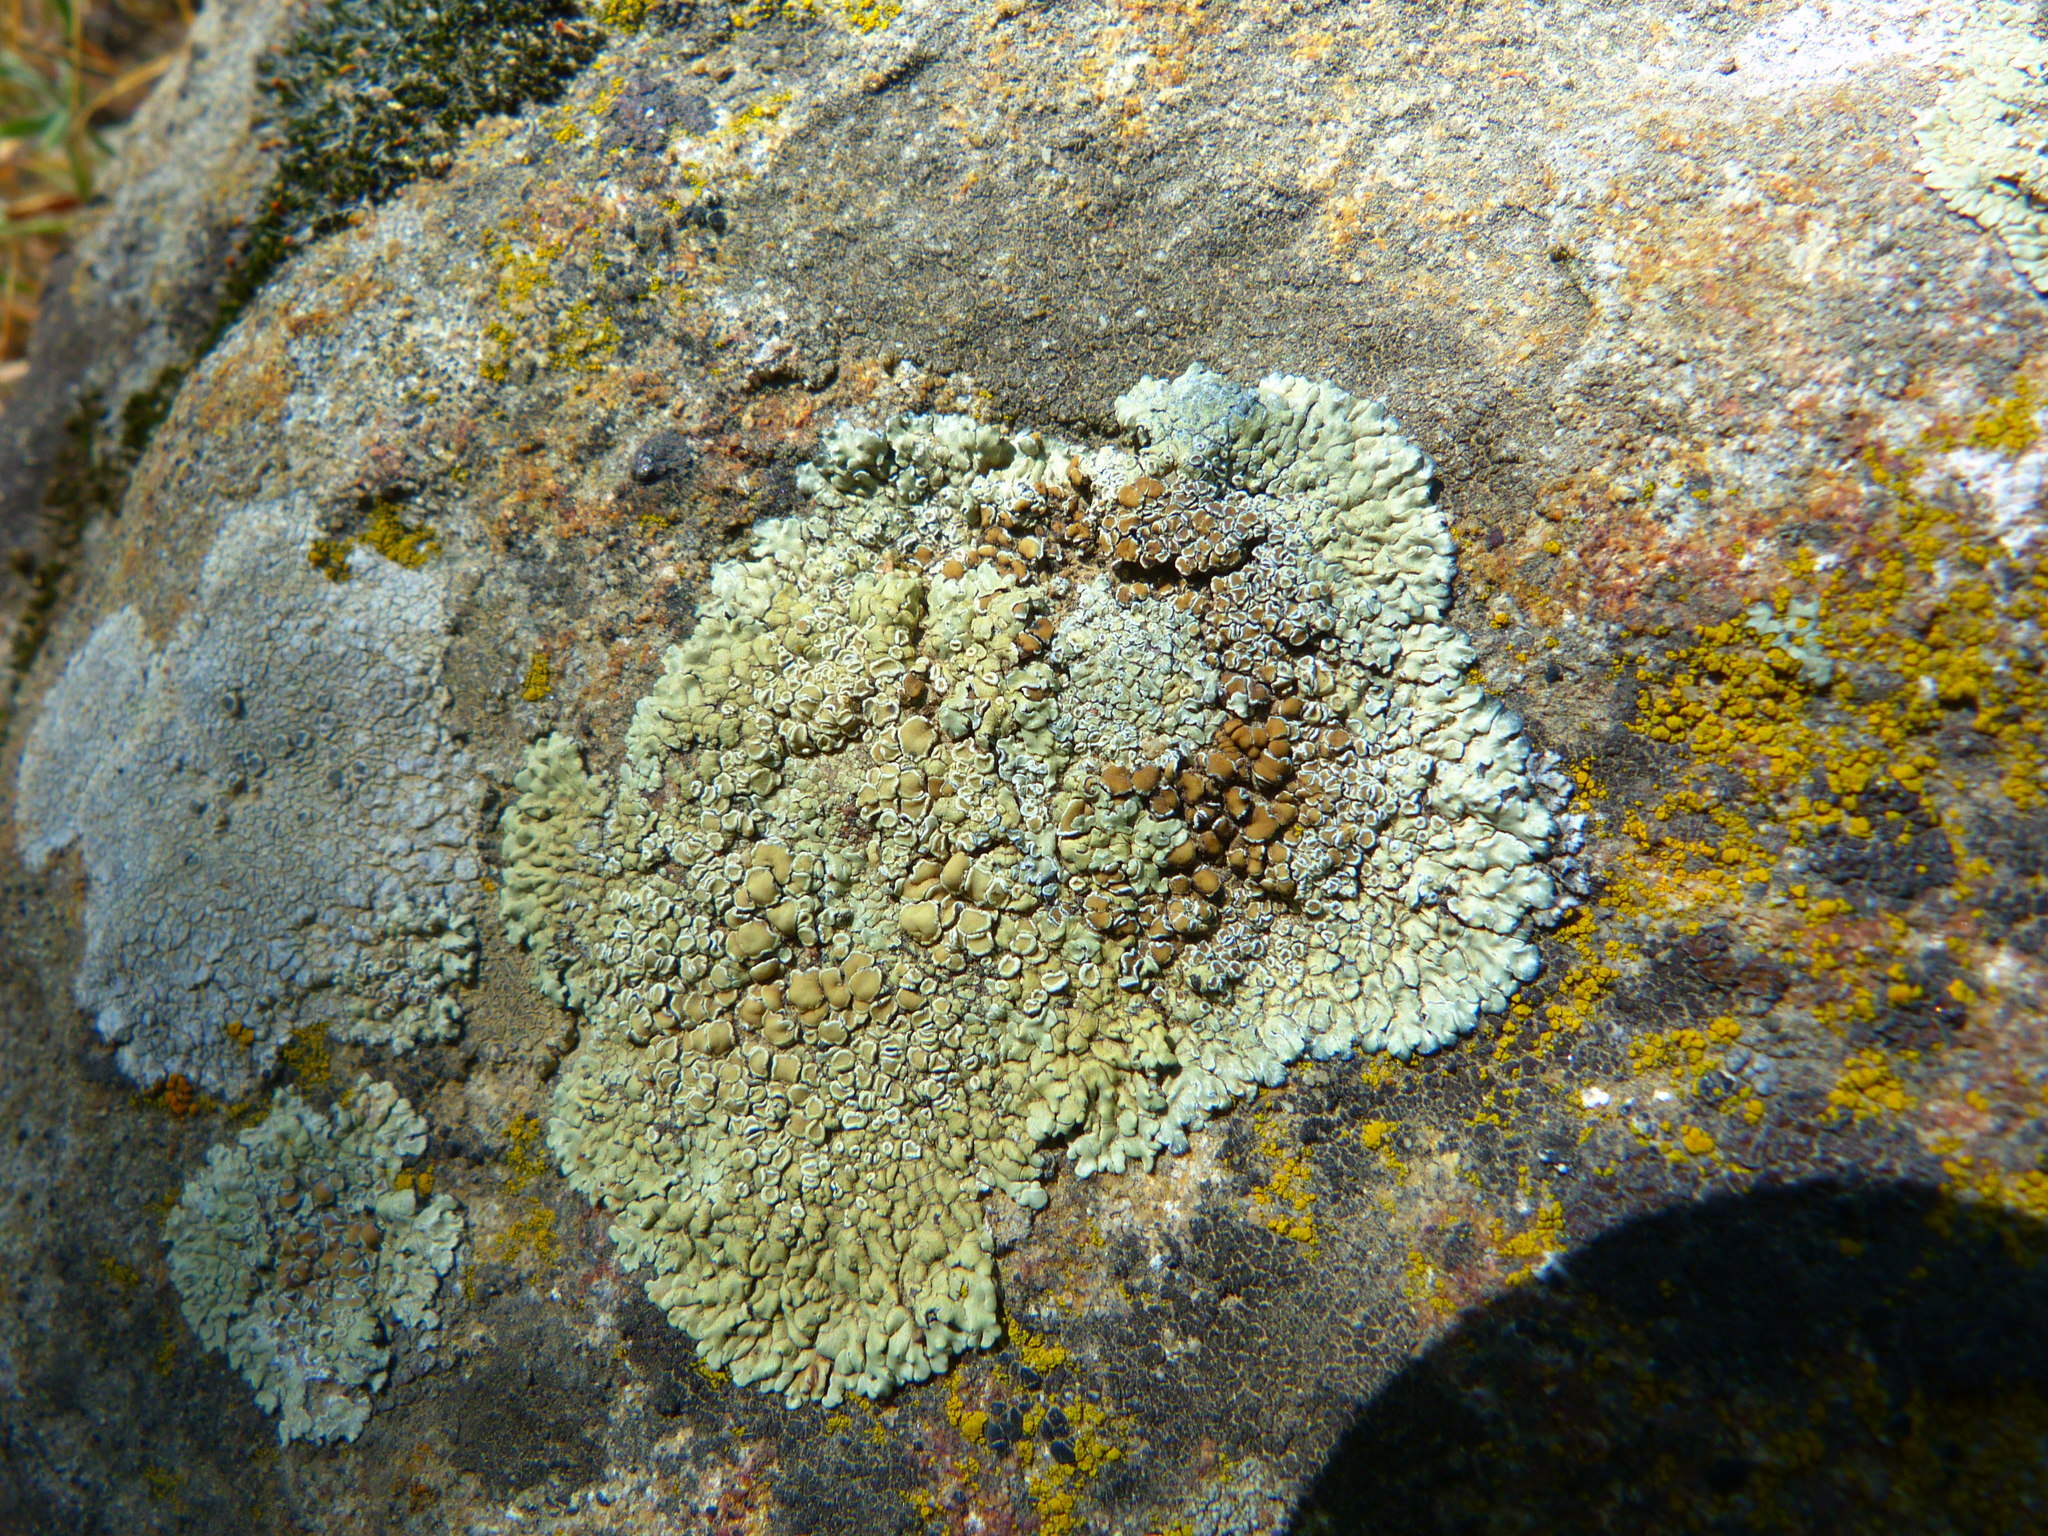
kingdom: Fungi
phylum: Ascomycota
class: Lecanoromycetes
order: Lecanorales
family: Lecanoraceae
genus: Protoparmeliopsis
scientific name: Protoparmeliopsis sierrae
